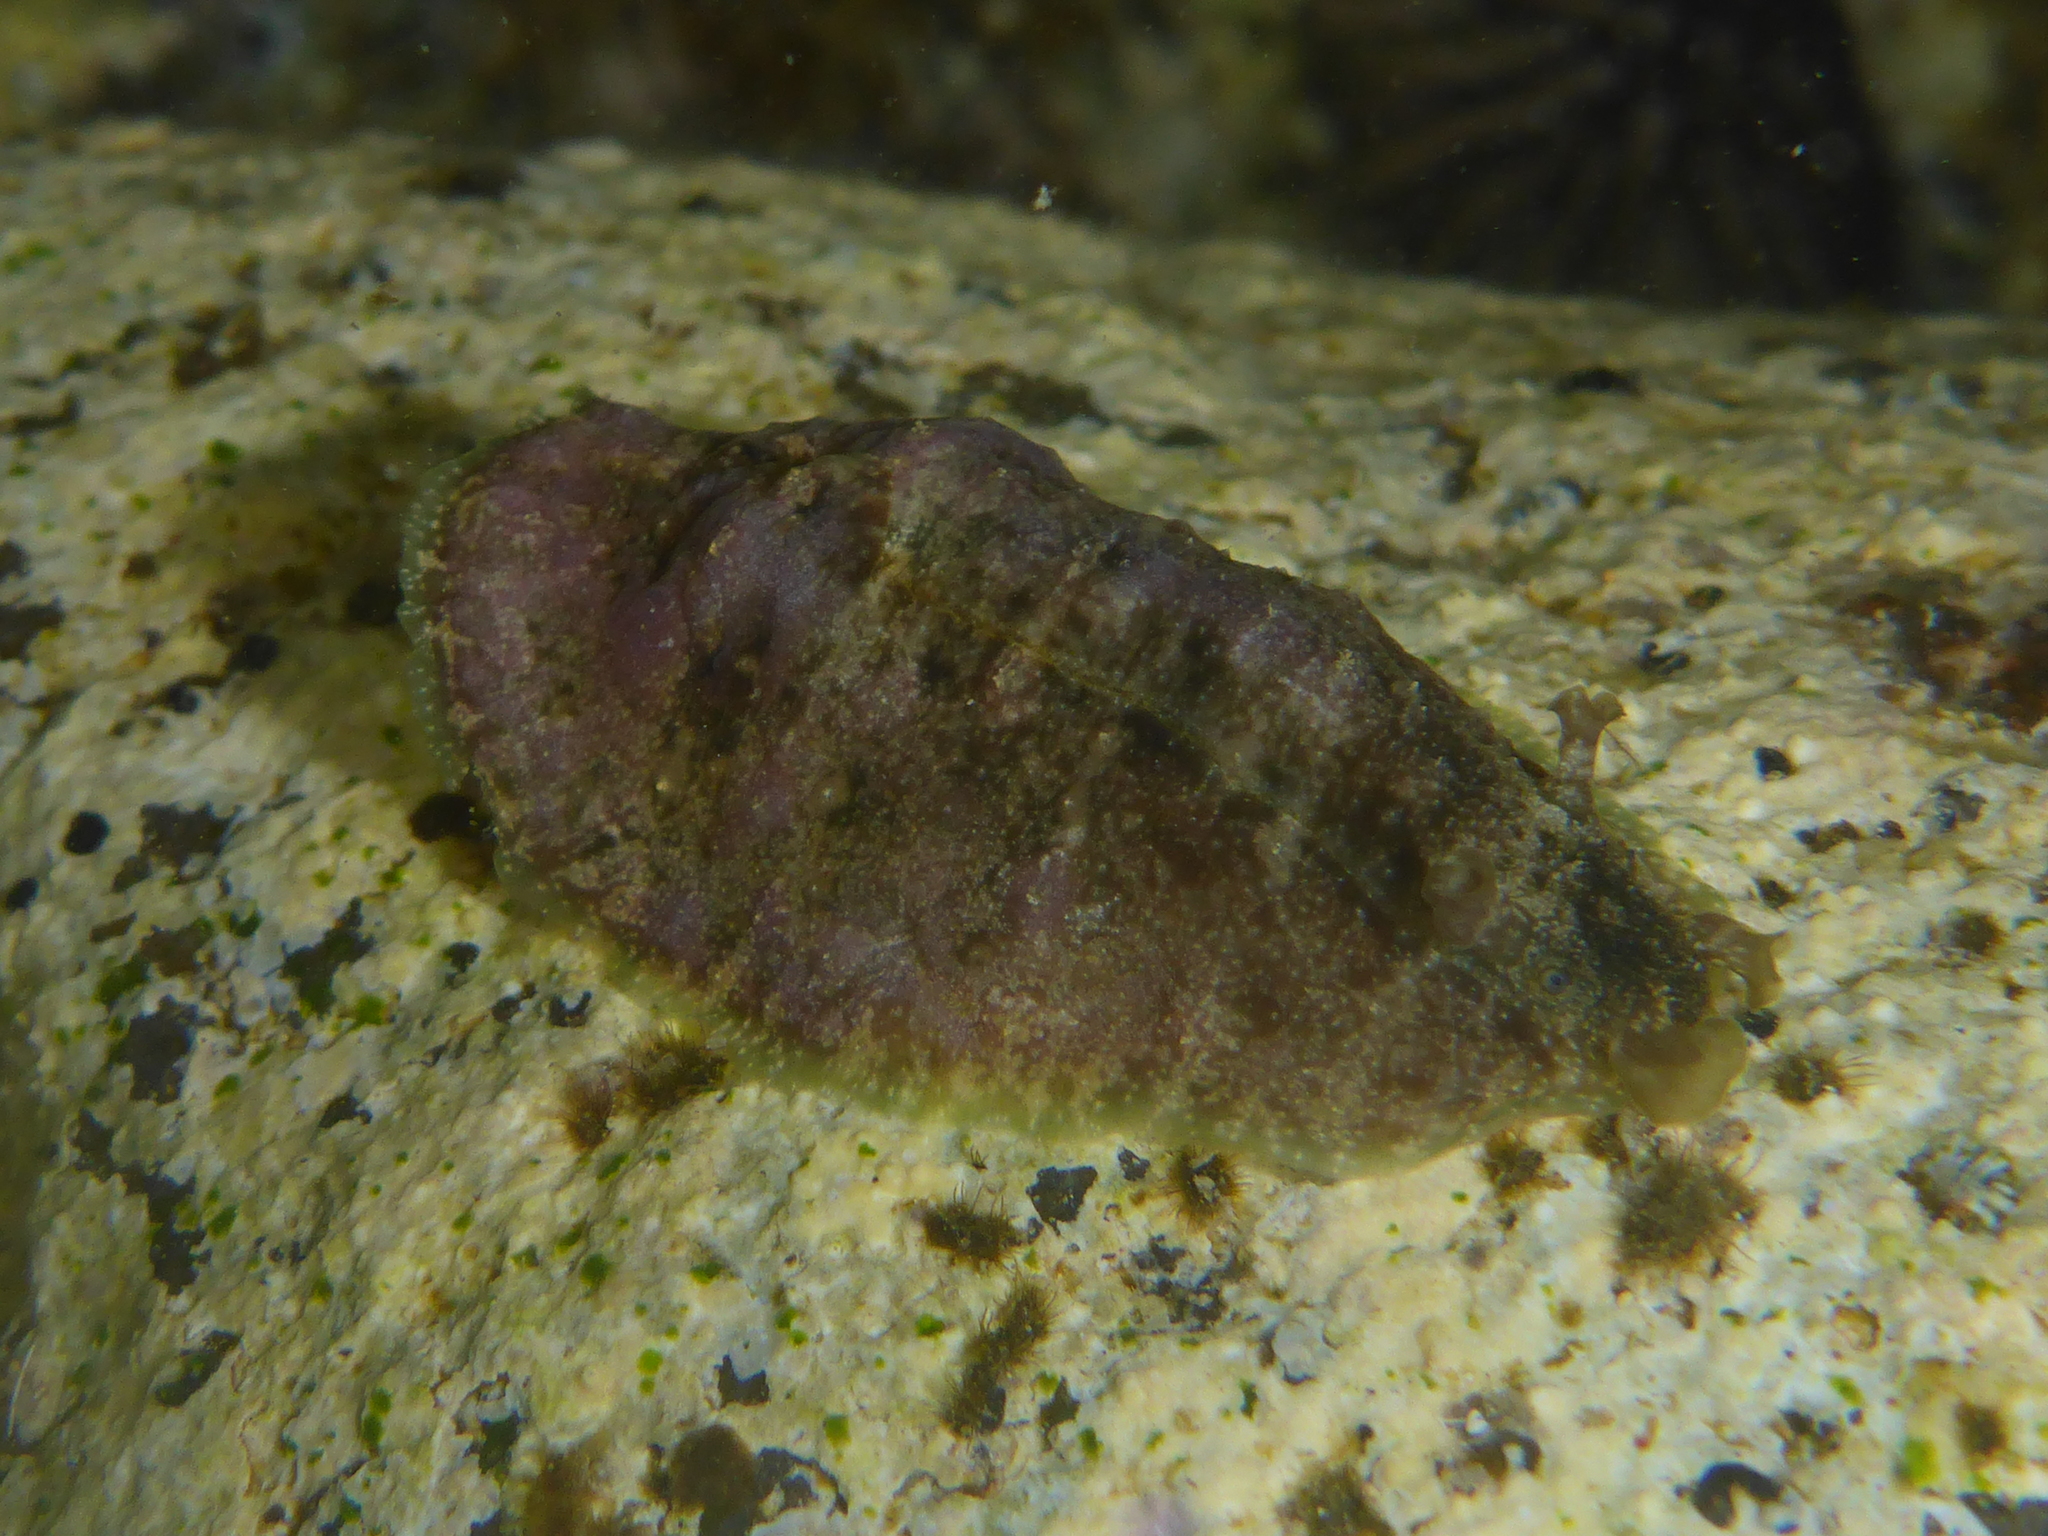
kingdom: Animalia
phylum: Mollusca
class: Gastropoda
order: Aplysiida
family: Aplysiidae
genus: Dolabrifera
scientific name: Dolabrifera dolabrifera
